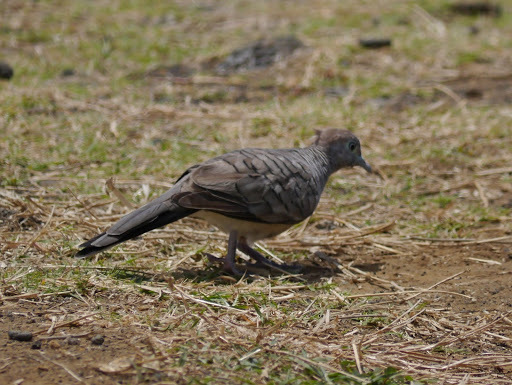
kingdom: Animalia
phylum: Chordata
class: Aves
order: Columbiformes
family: Columbidae
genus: Geopelia
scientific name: Geopelia striata
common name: Zebra dove
